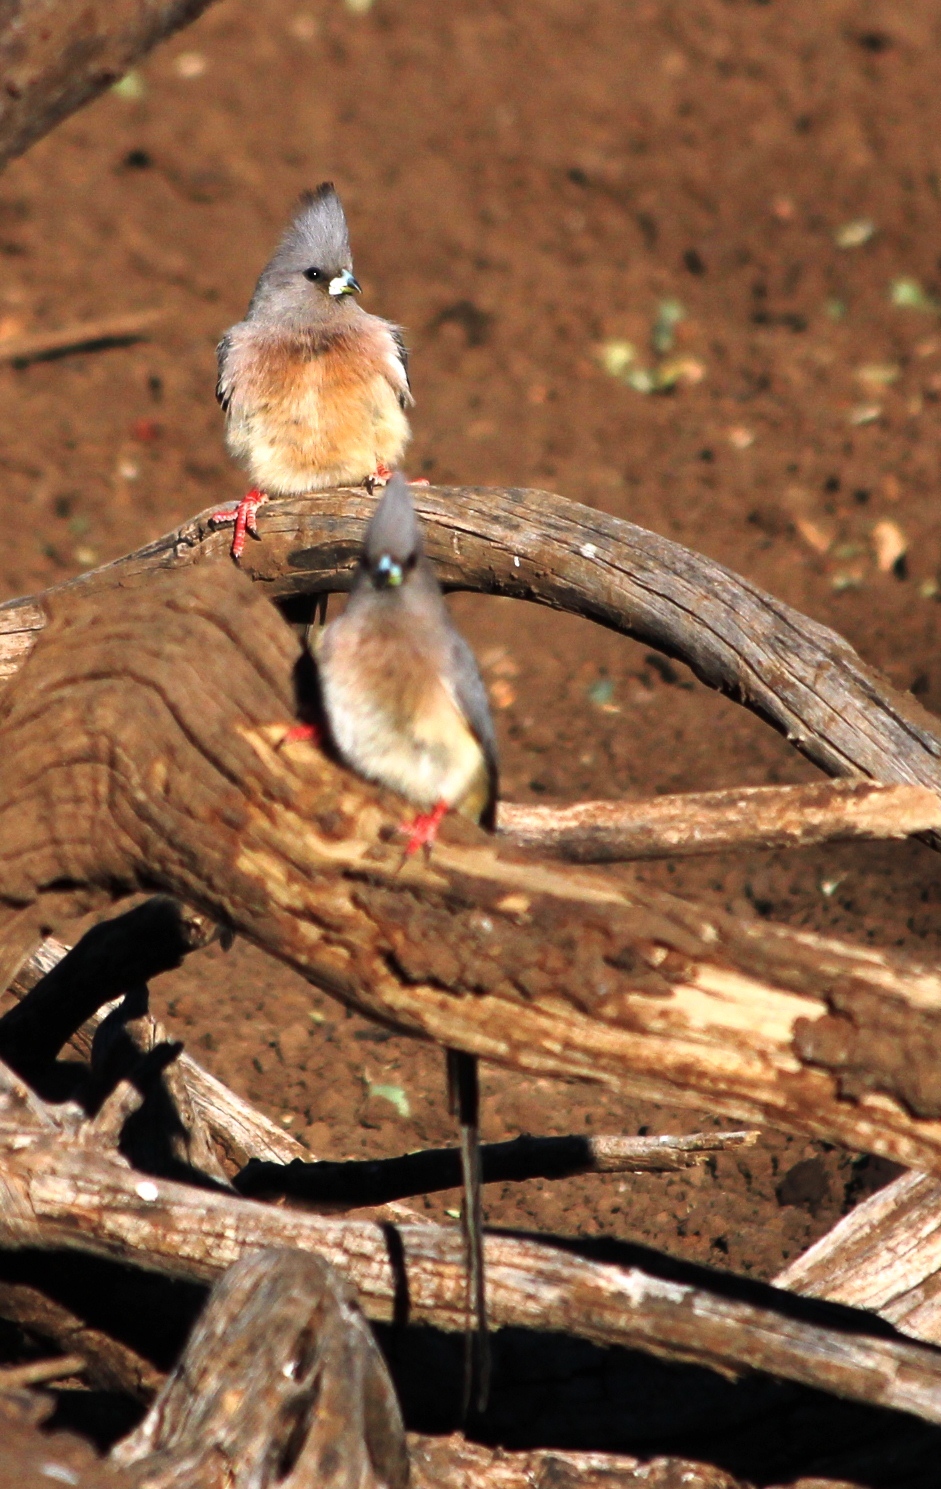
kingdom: Animalia
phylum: Chordata
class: Aves
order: Coliiformes
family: Coliidae
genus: Colius
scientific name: Colius colius
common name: White-backed mousebird
